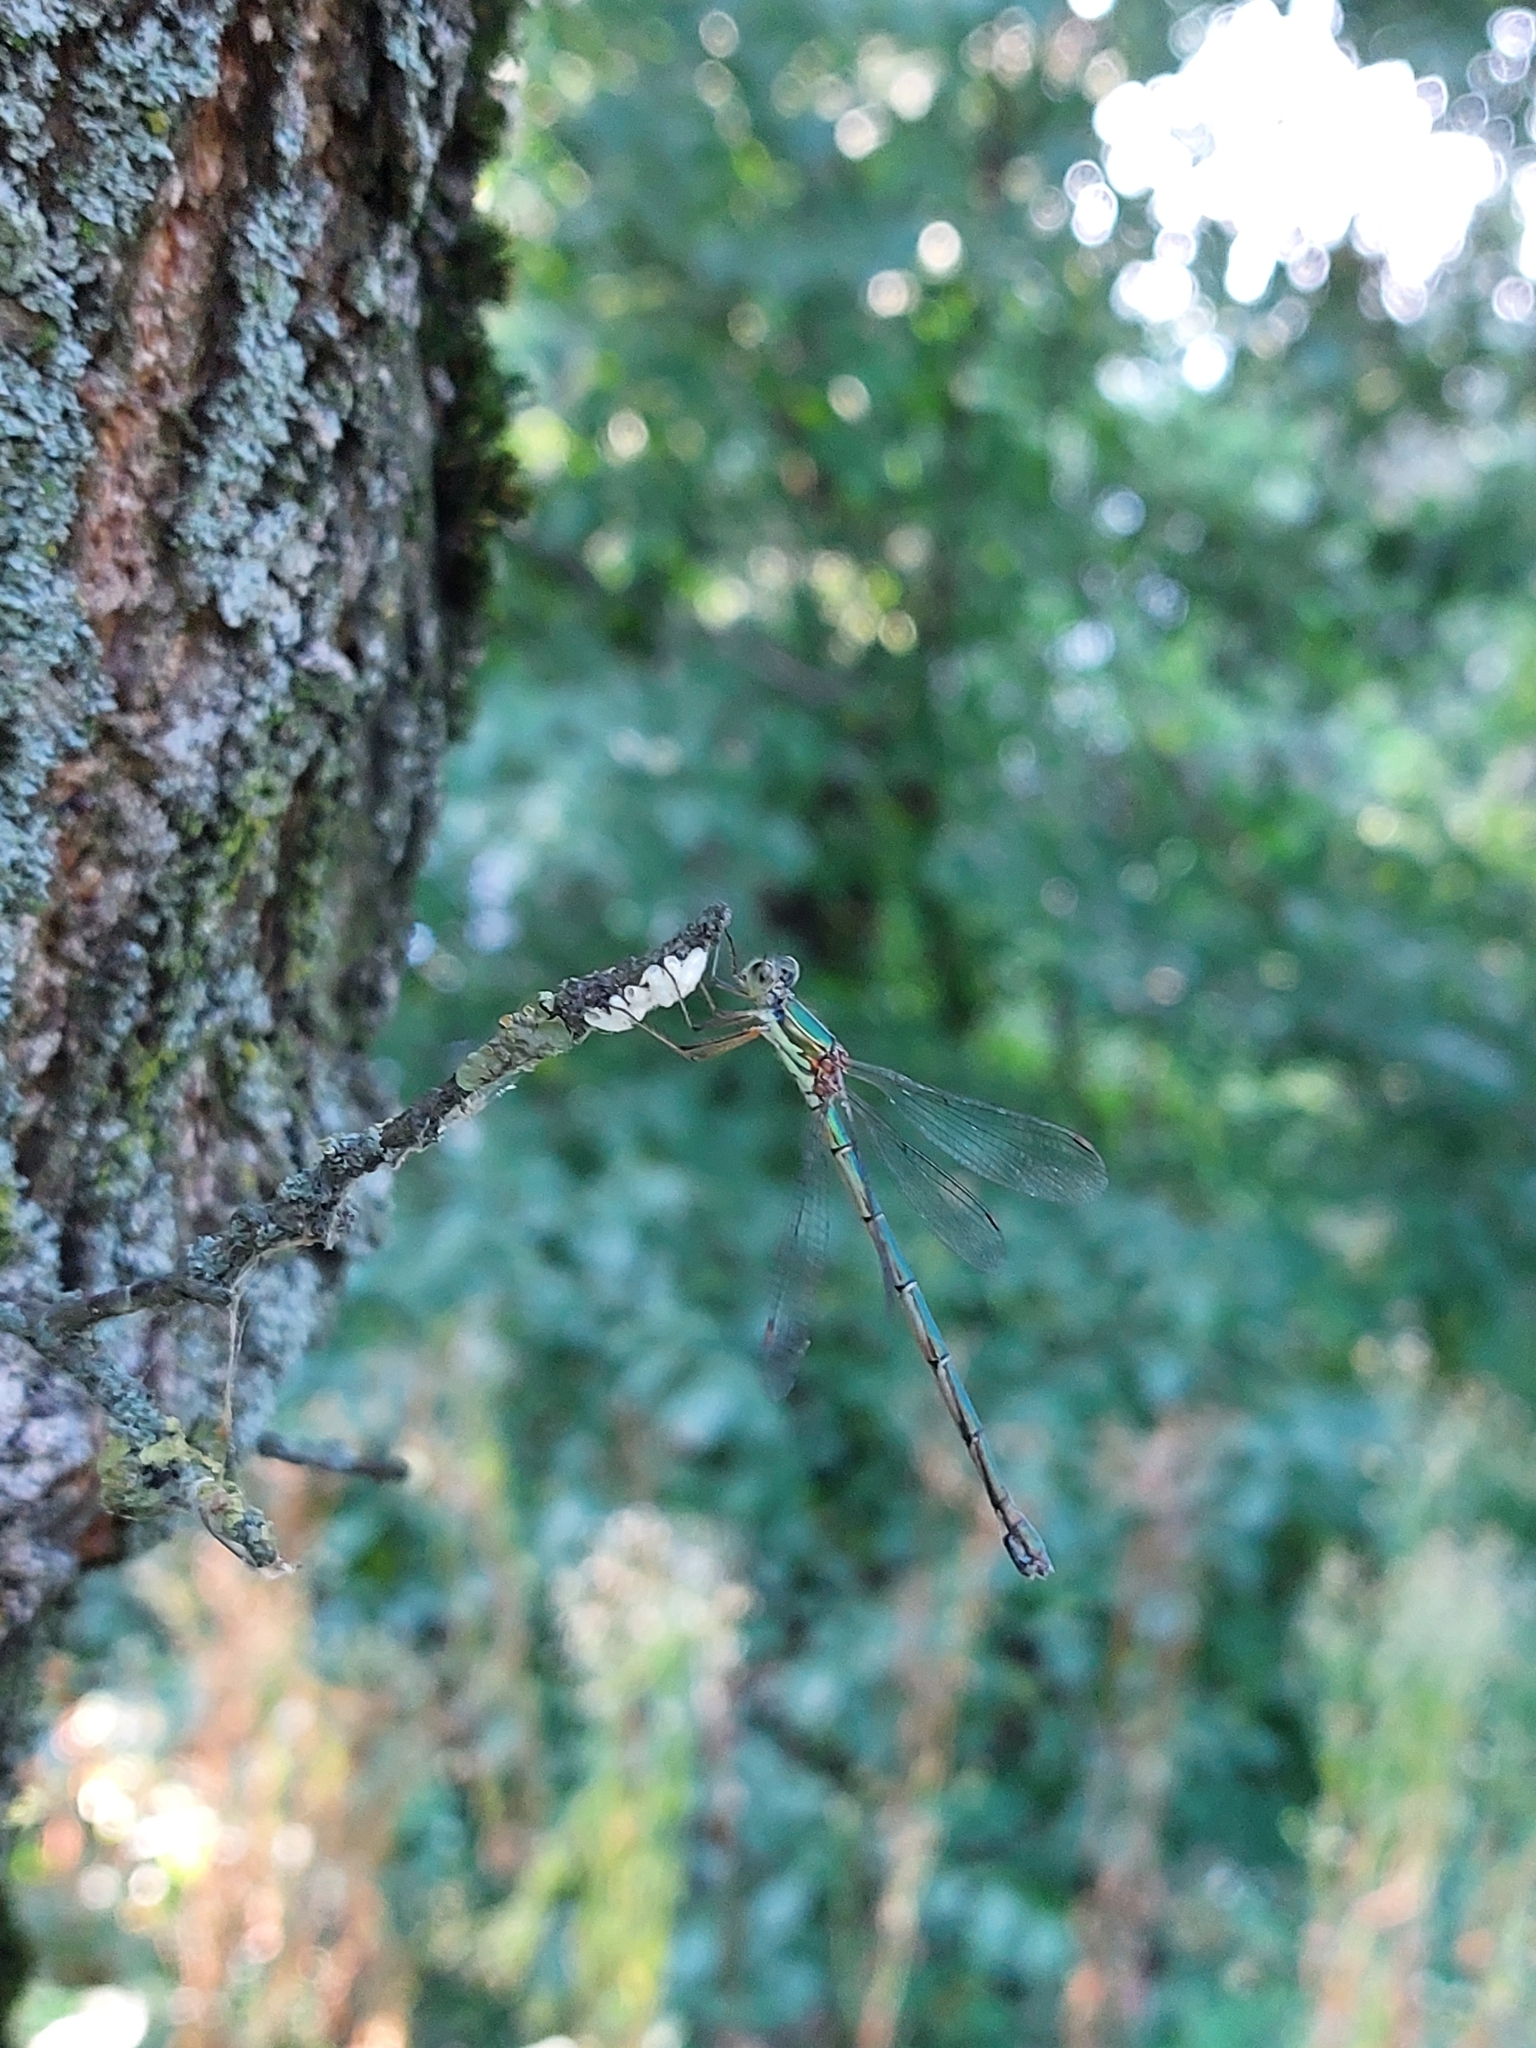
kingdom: Animalia
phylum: Arthropoda
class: Insecta
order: Odonata
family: Lestidae
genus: Chalcolestes
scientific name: Chalcolestes parvidens
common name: Eastern willow spreadwing
